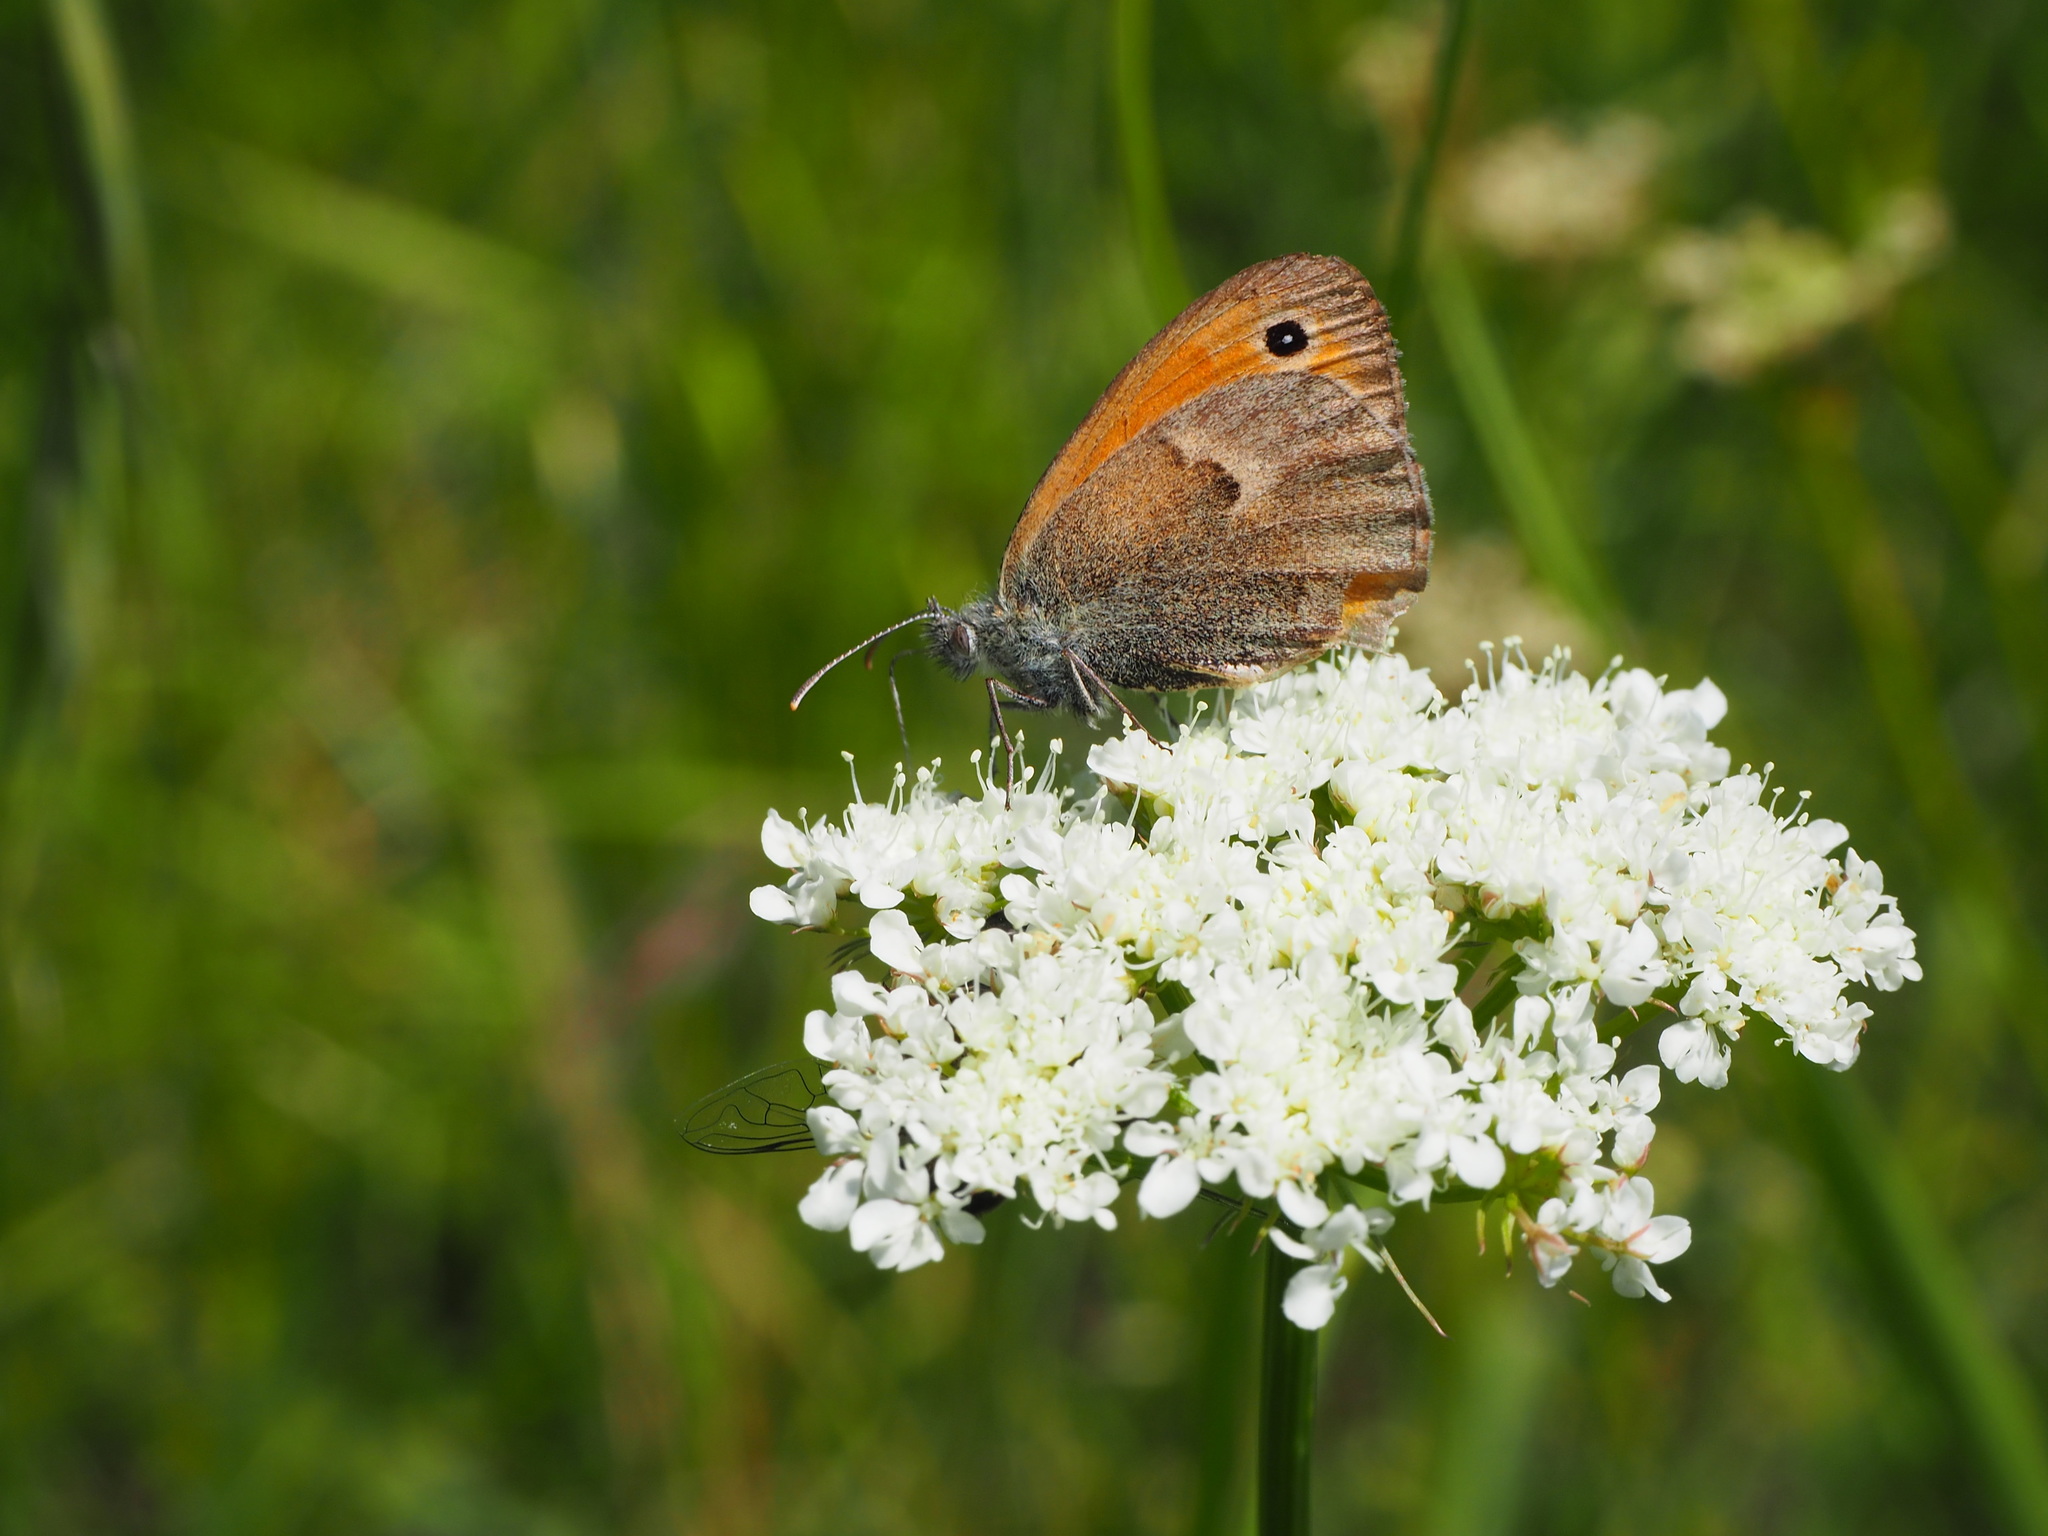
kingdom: Animalia
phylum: Arthropoda
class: Insecta
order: Lepidoptera
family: Nymphalidae
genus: Coenonympha
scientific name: Coenonympha pamphilus
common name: Small heath
